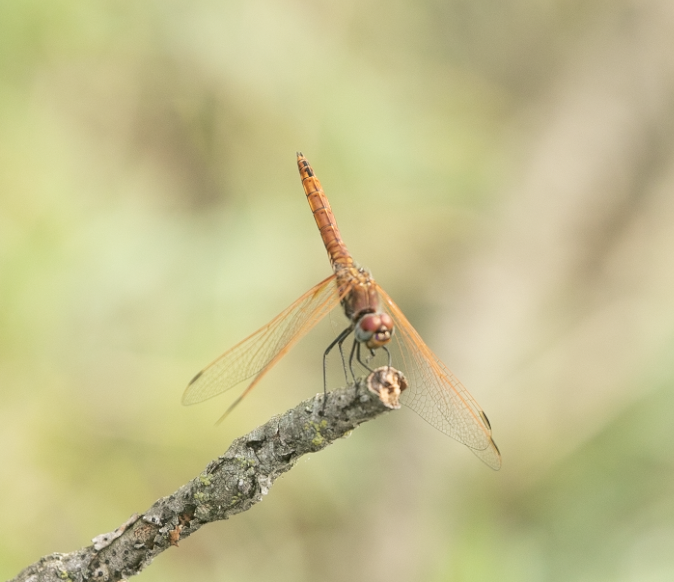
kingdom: Animalia
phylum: Arthropoda
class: Insecta
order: Odonata
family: Libellulidae
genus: Trithemis
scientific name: Trithemis annulata
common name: Violet dropwing
